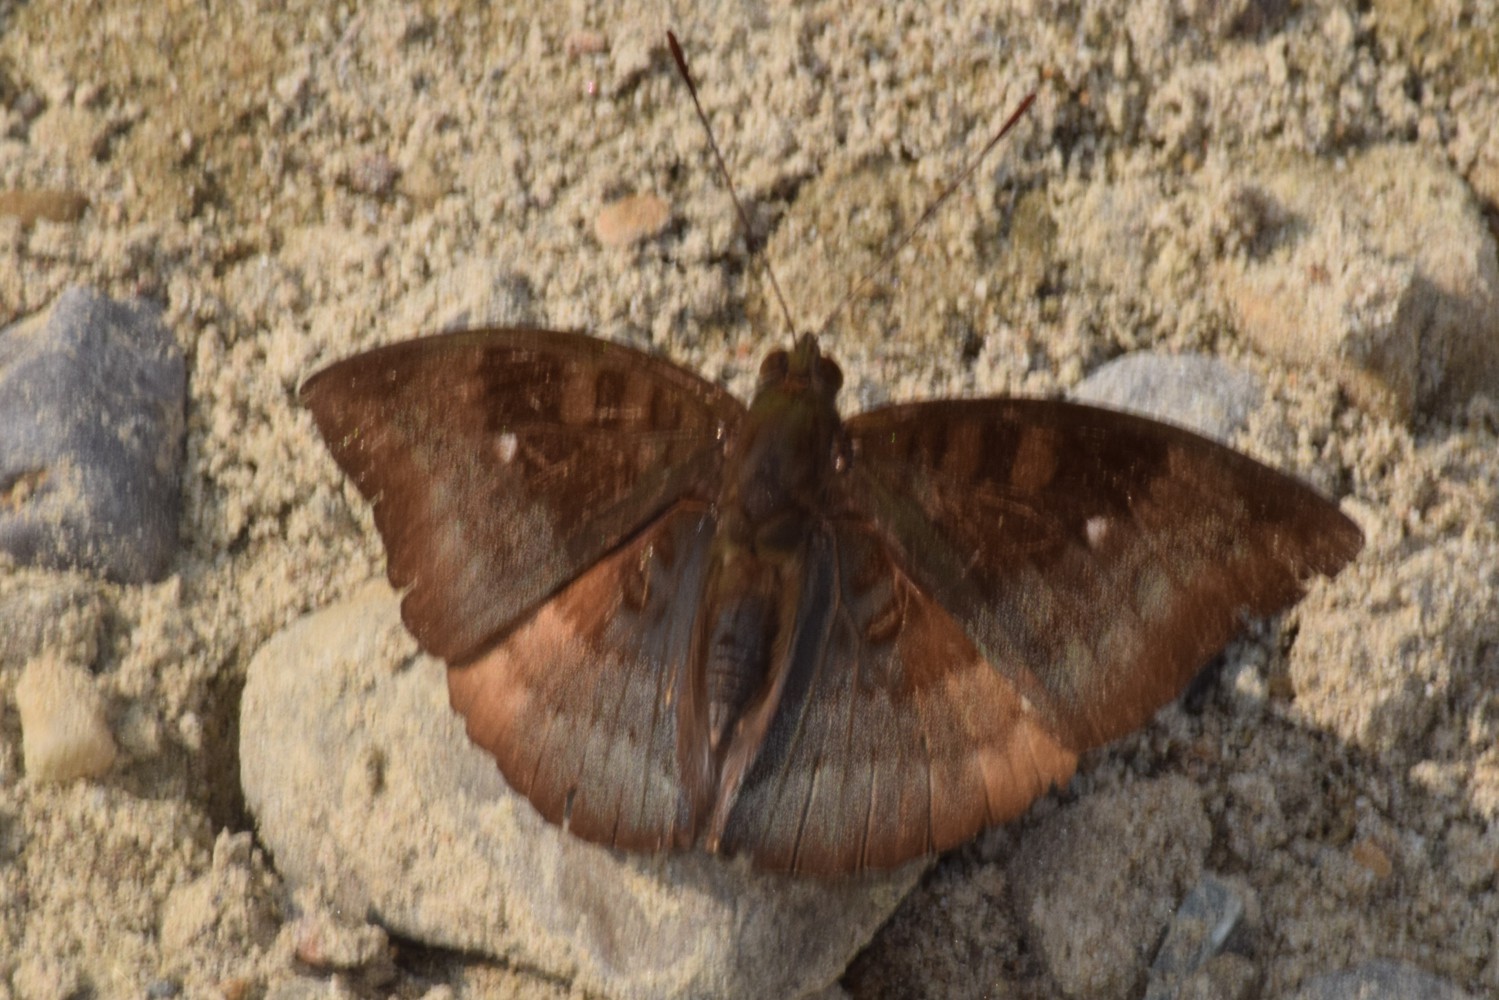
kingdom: Animalia
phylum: Arthropoda
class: Insecta
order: Lepidoptera
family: Nymphalidae
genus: Euthalia
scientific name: Euthalia monina
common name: Powdered baron
